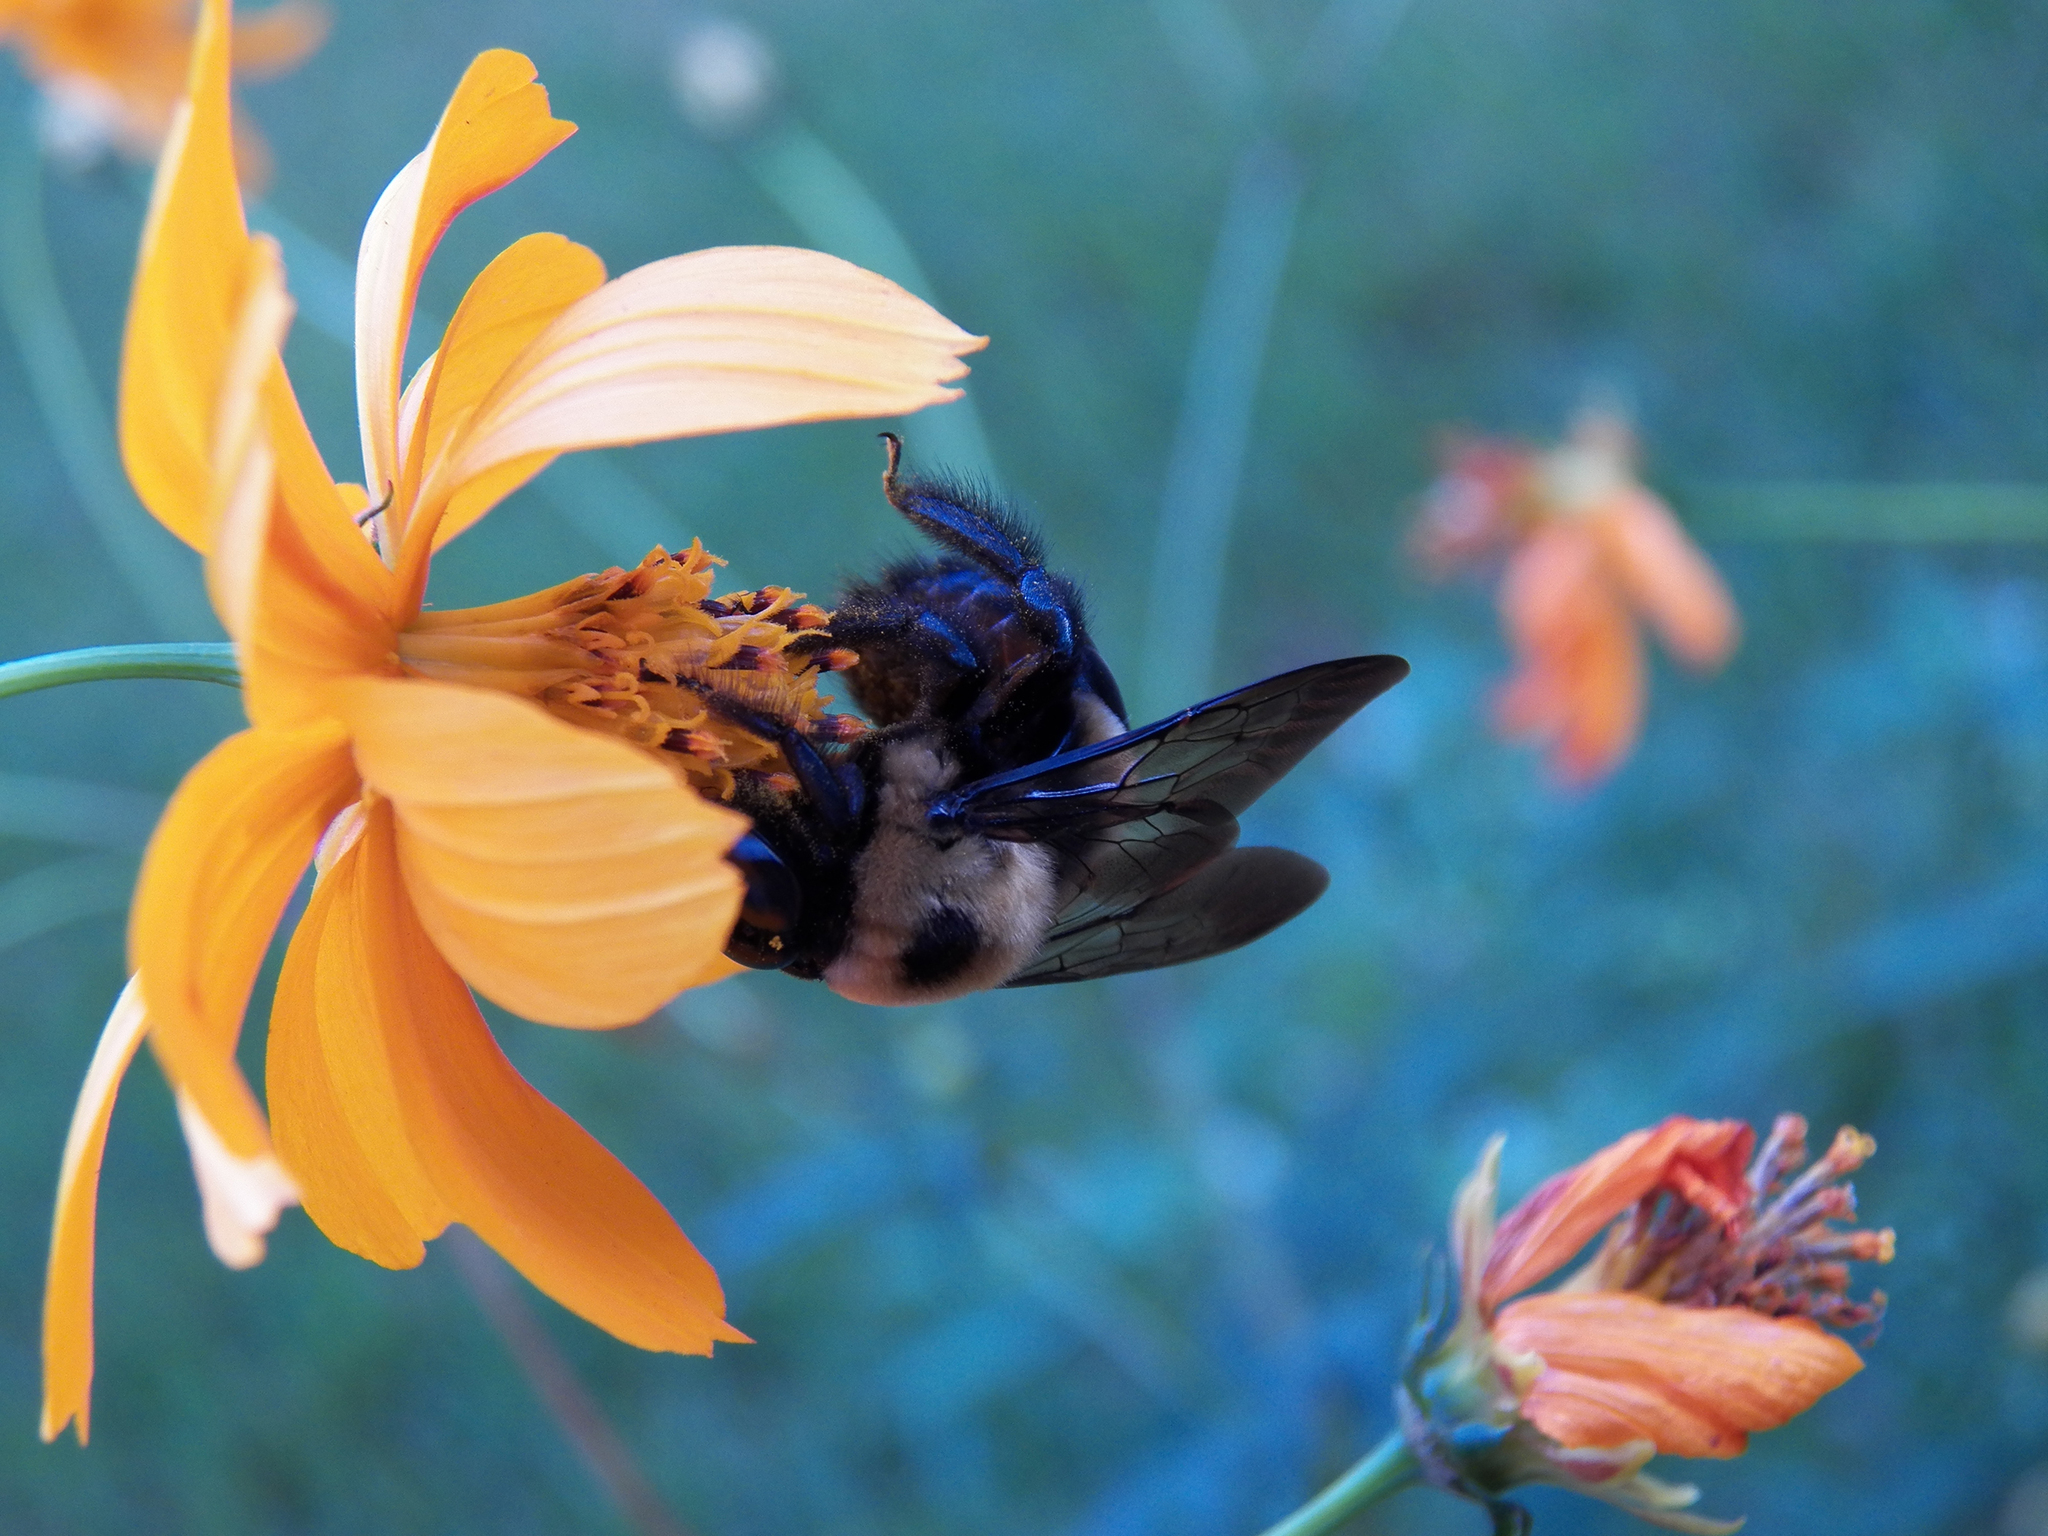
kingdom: Animalia
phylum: Arthropoda
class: Insecta
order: Hymenoptera
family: Apidae
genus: Xylocopa
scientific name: Xylocopa virginica
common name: Carpenter bee
